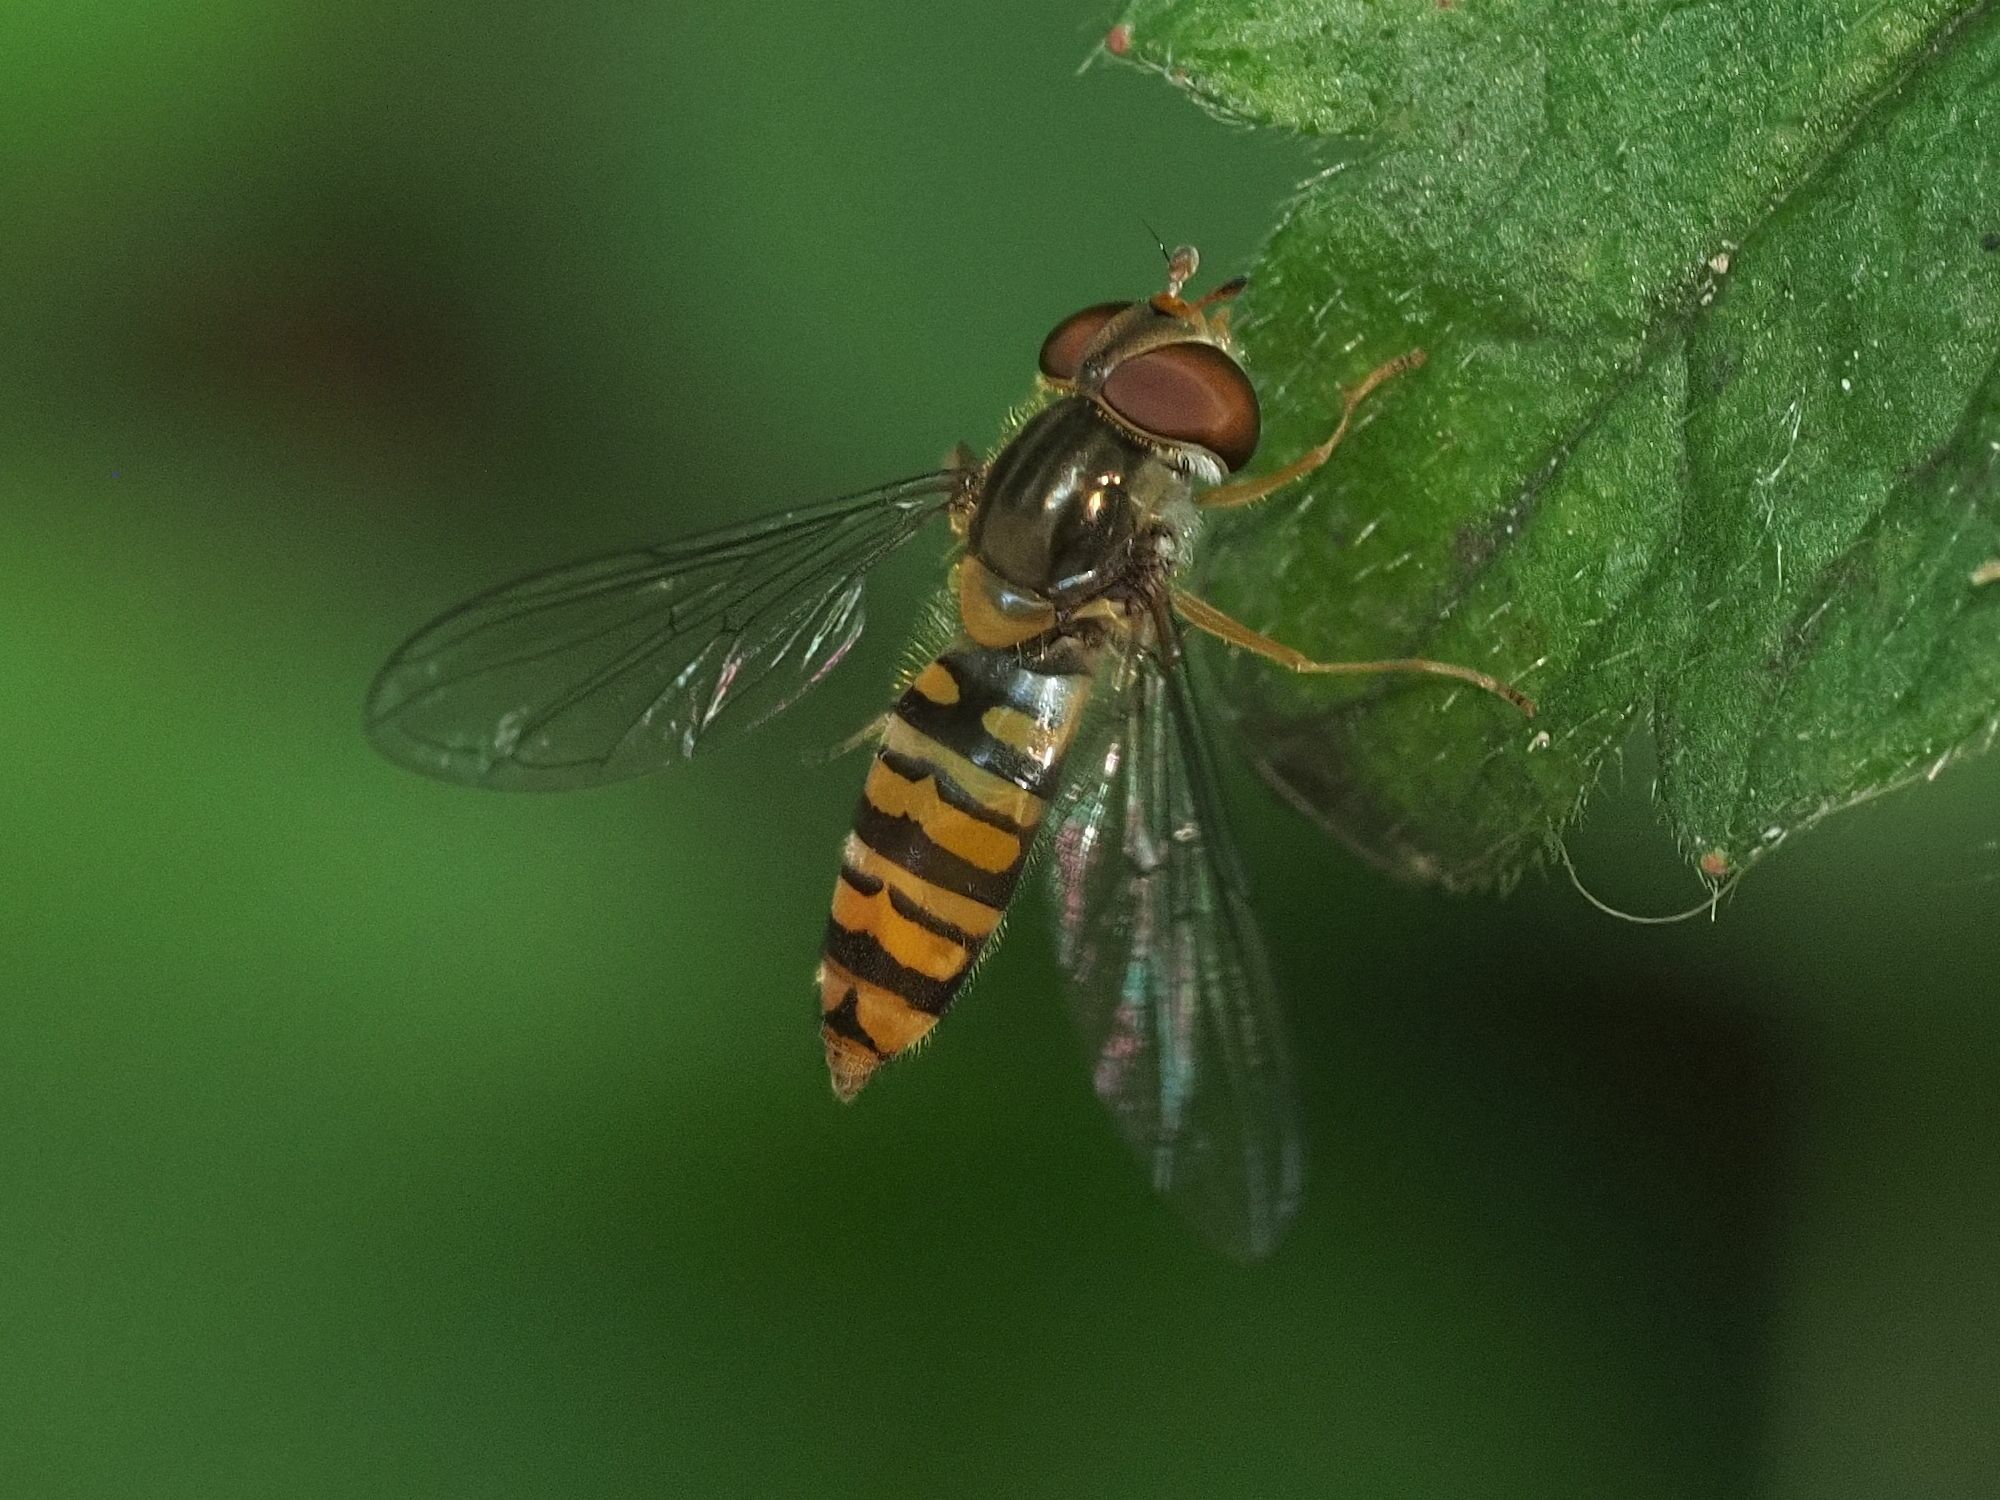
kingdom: Animalia
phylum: Arthropoda
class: Insecta
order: Diptera
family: Syrphidae
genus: Episyrphus
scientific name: Episyrphus balteatus
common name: Marmalade hoverfly
